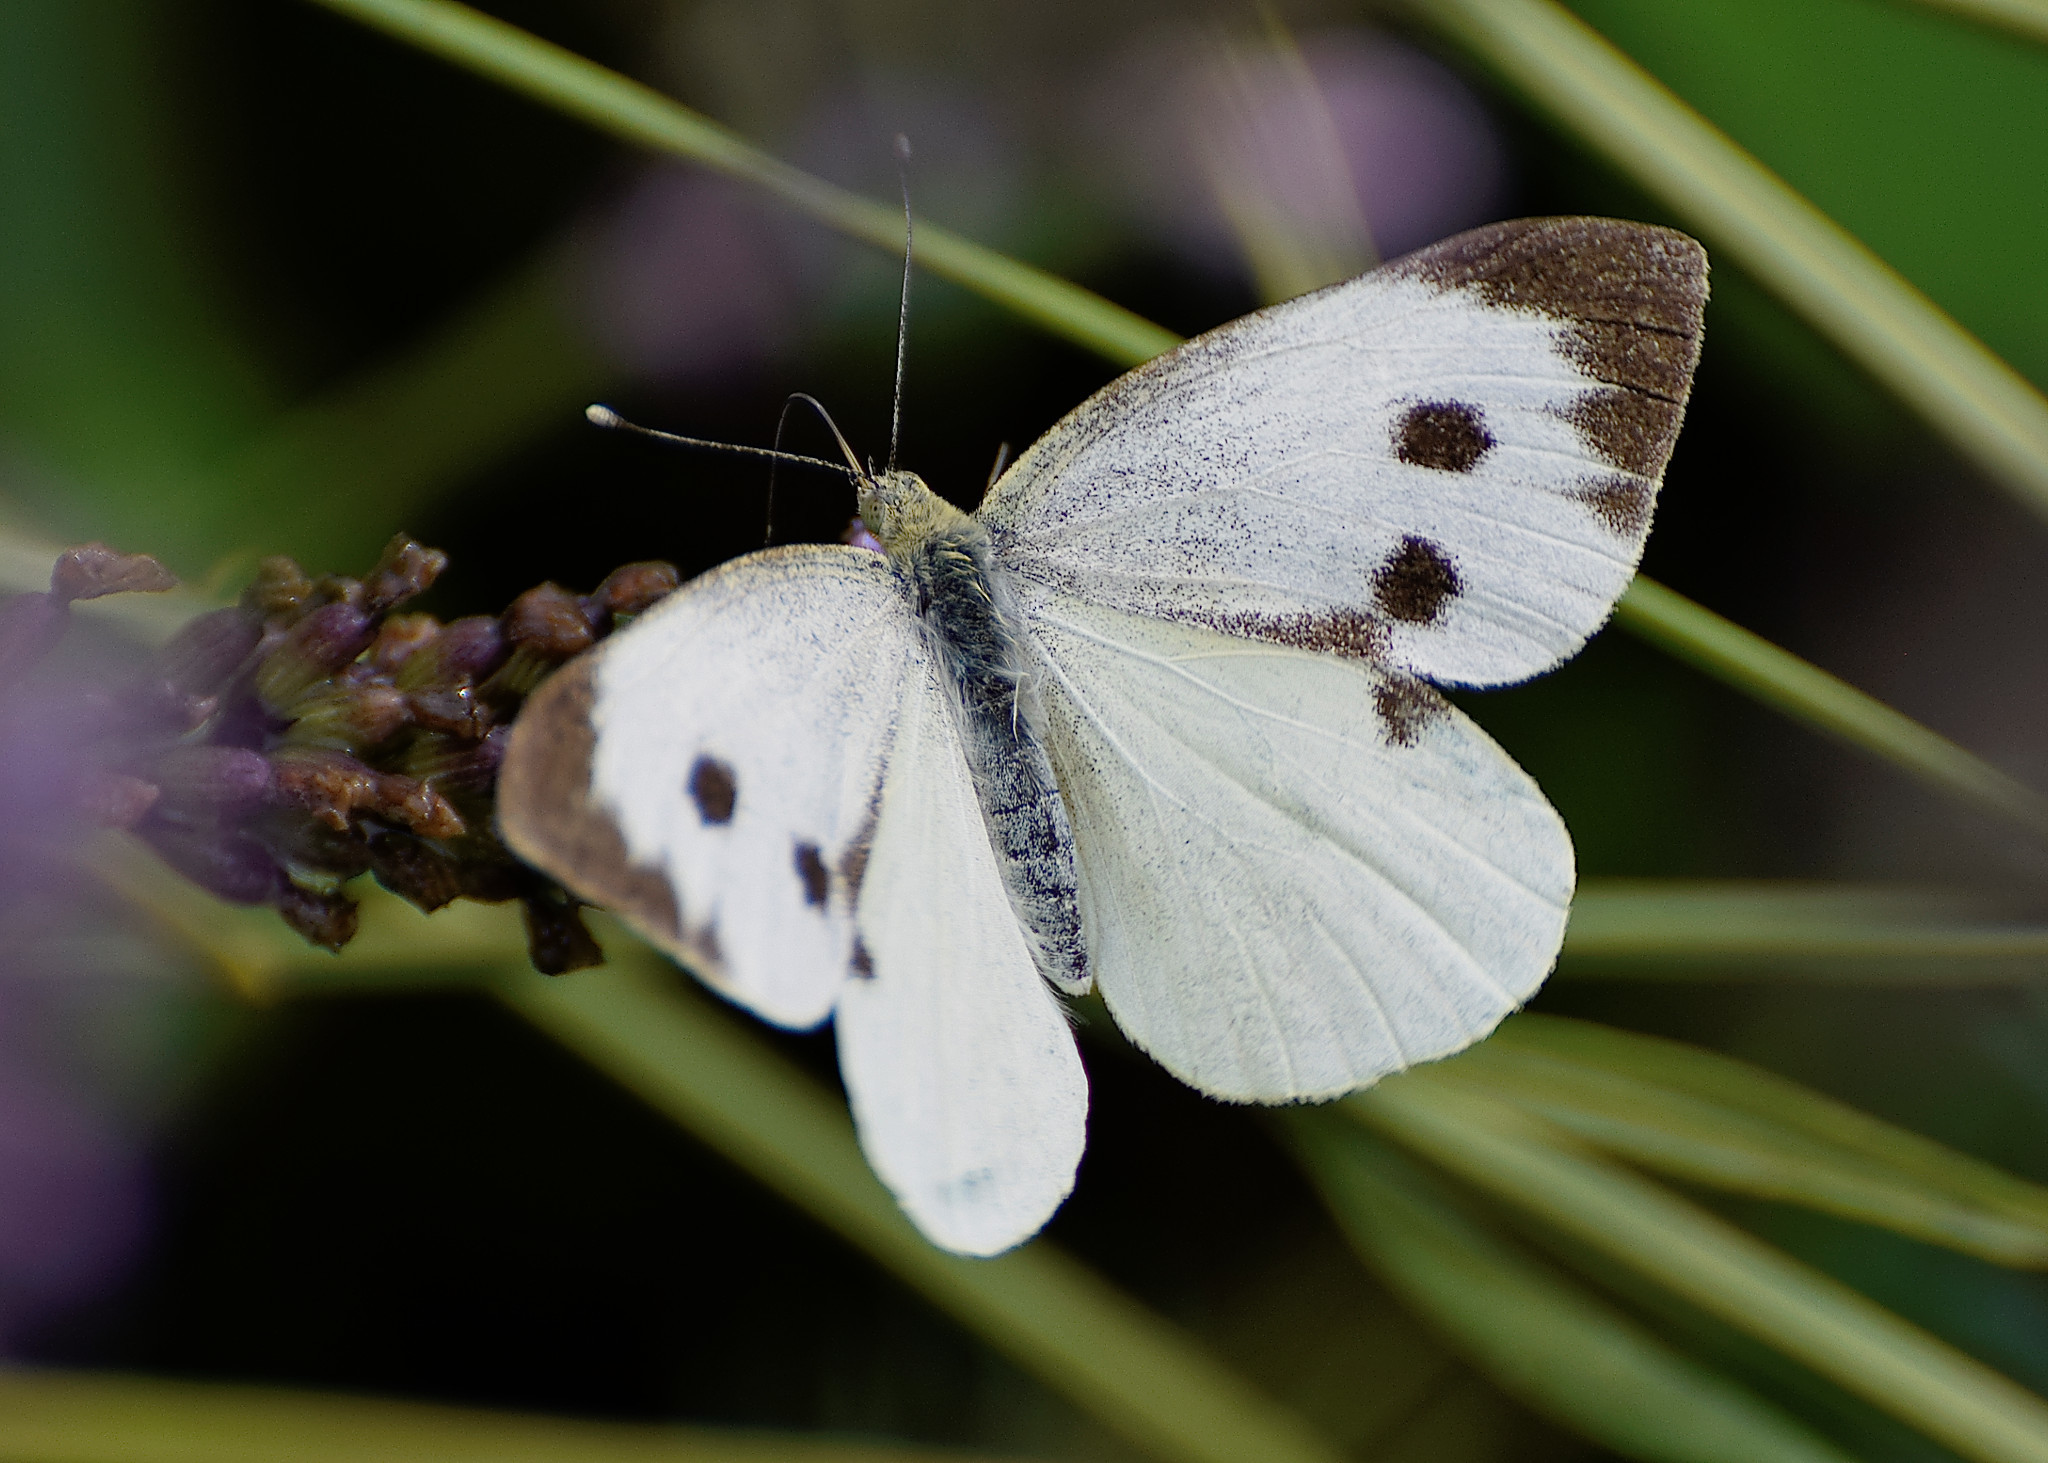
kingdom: Animalia
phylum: Arthropoda
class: Insecta
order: Lepidoptera
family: Pieridae
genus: Pieris
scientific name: Pieris brassicae
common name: Large white
